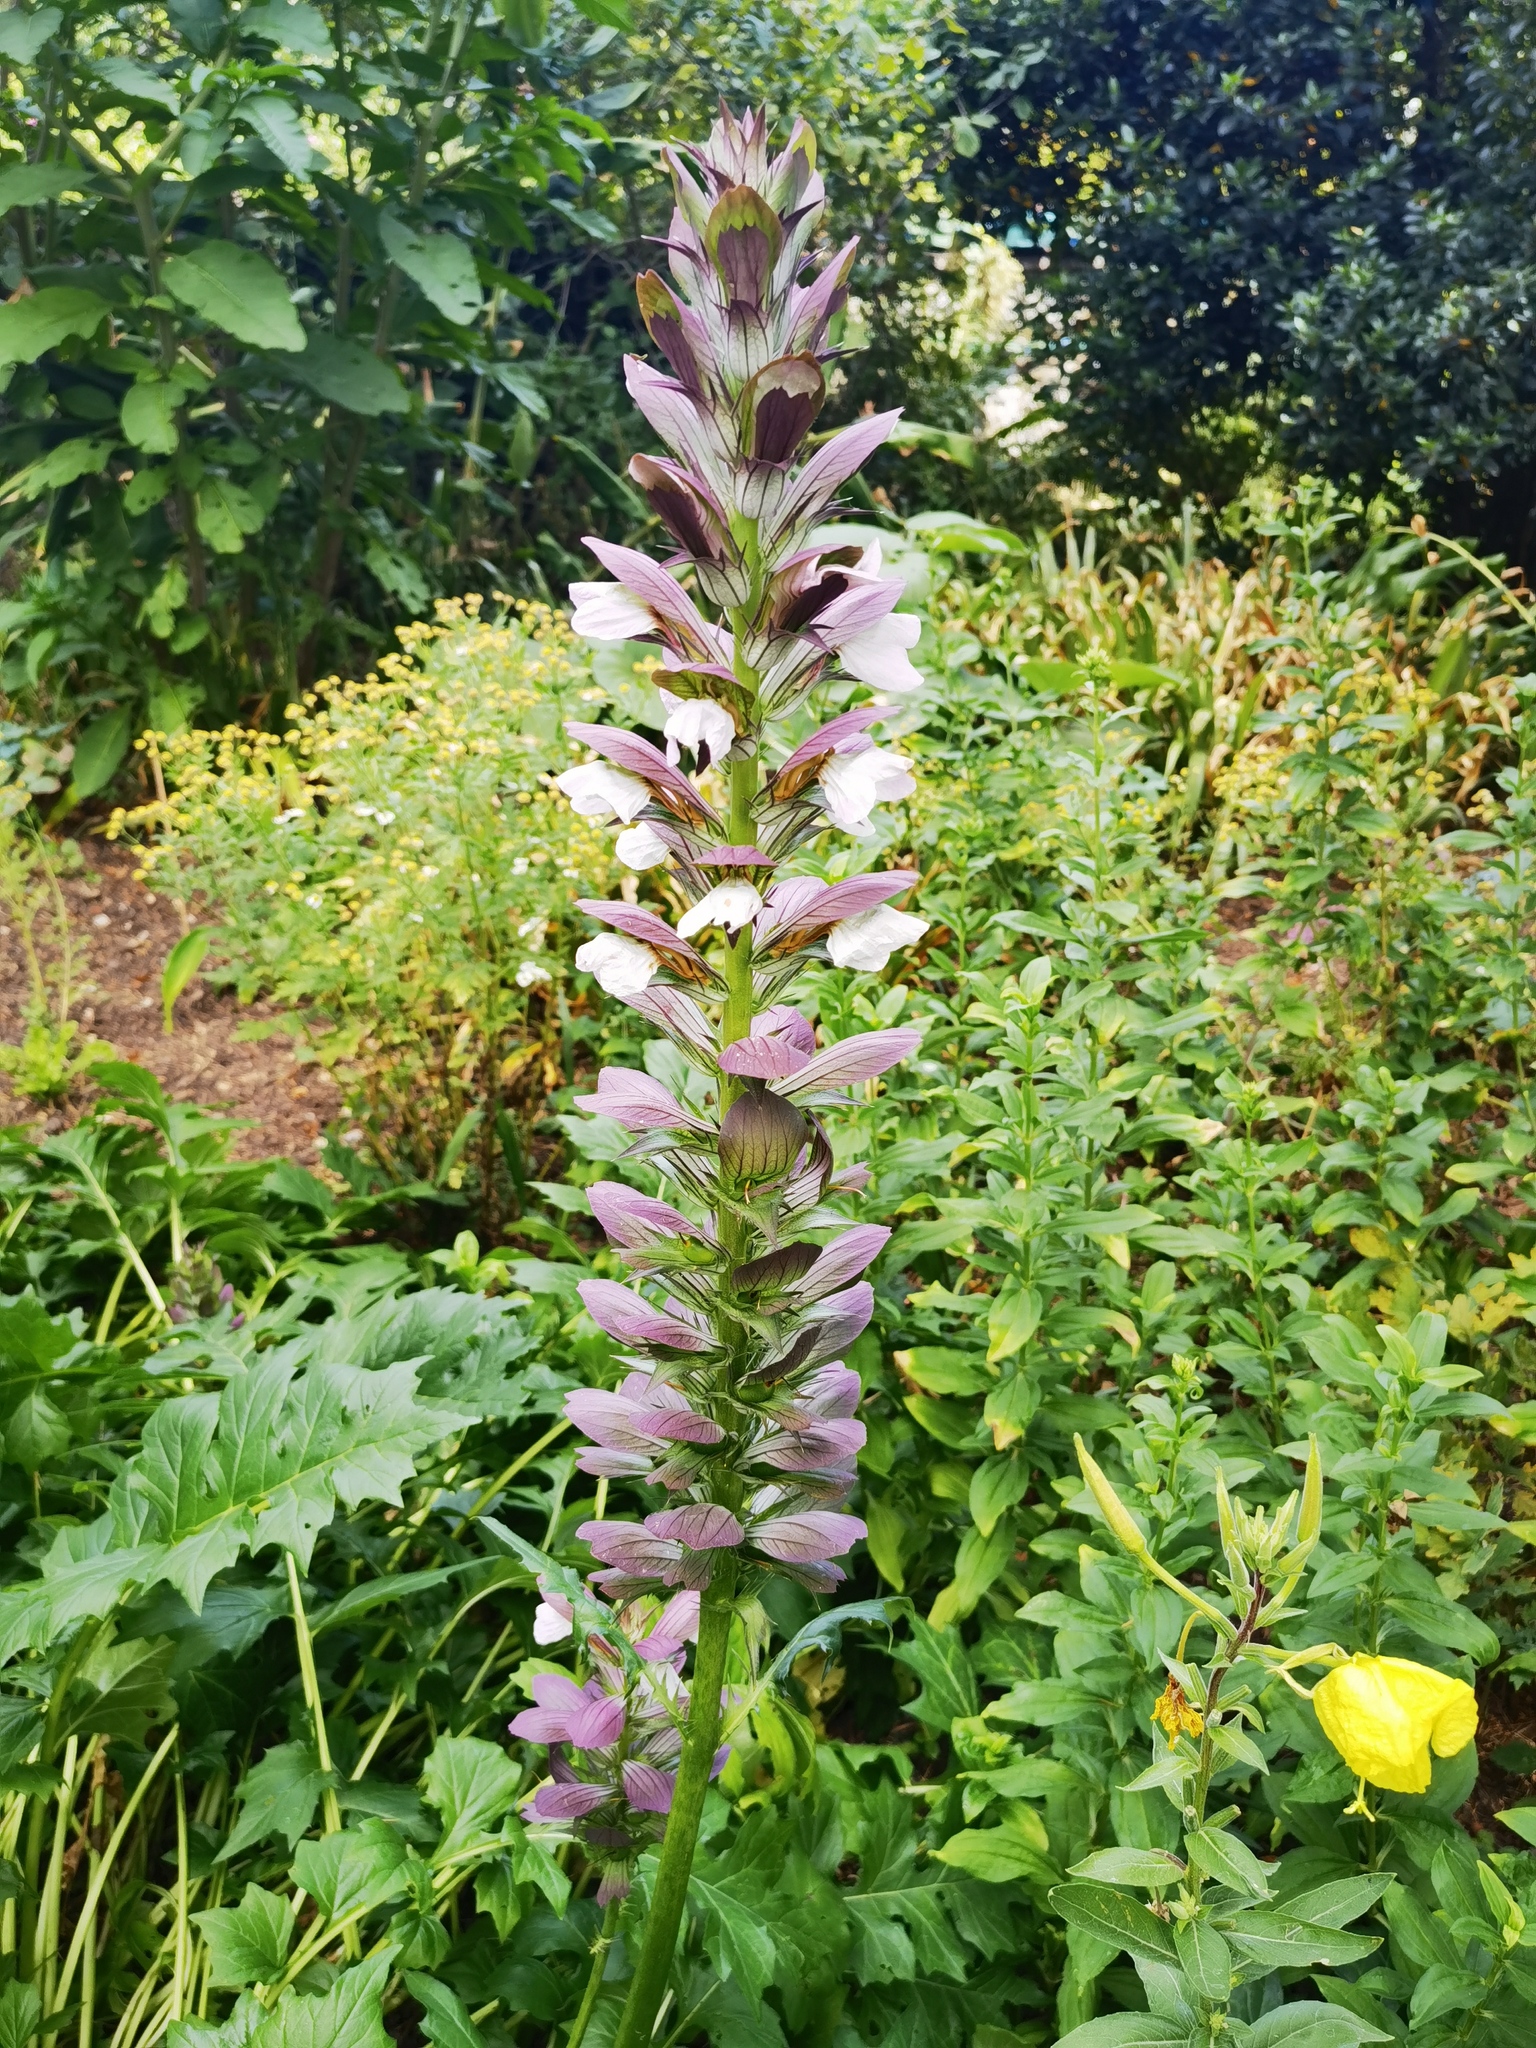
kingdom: Plantae
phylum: Tracheophyta
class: Magnoliopsida
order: Lamiales
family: Acanthaceae
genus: Acanthus
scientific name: Acanthus mollis
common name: Bear's-breech
